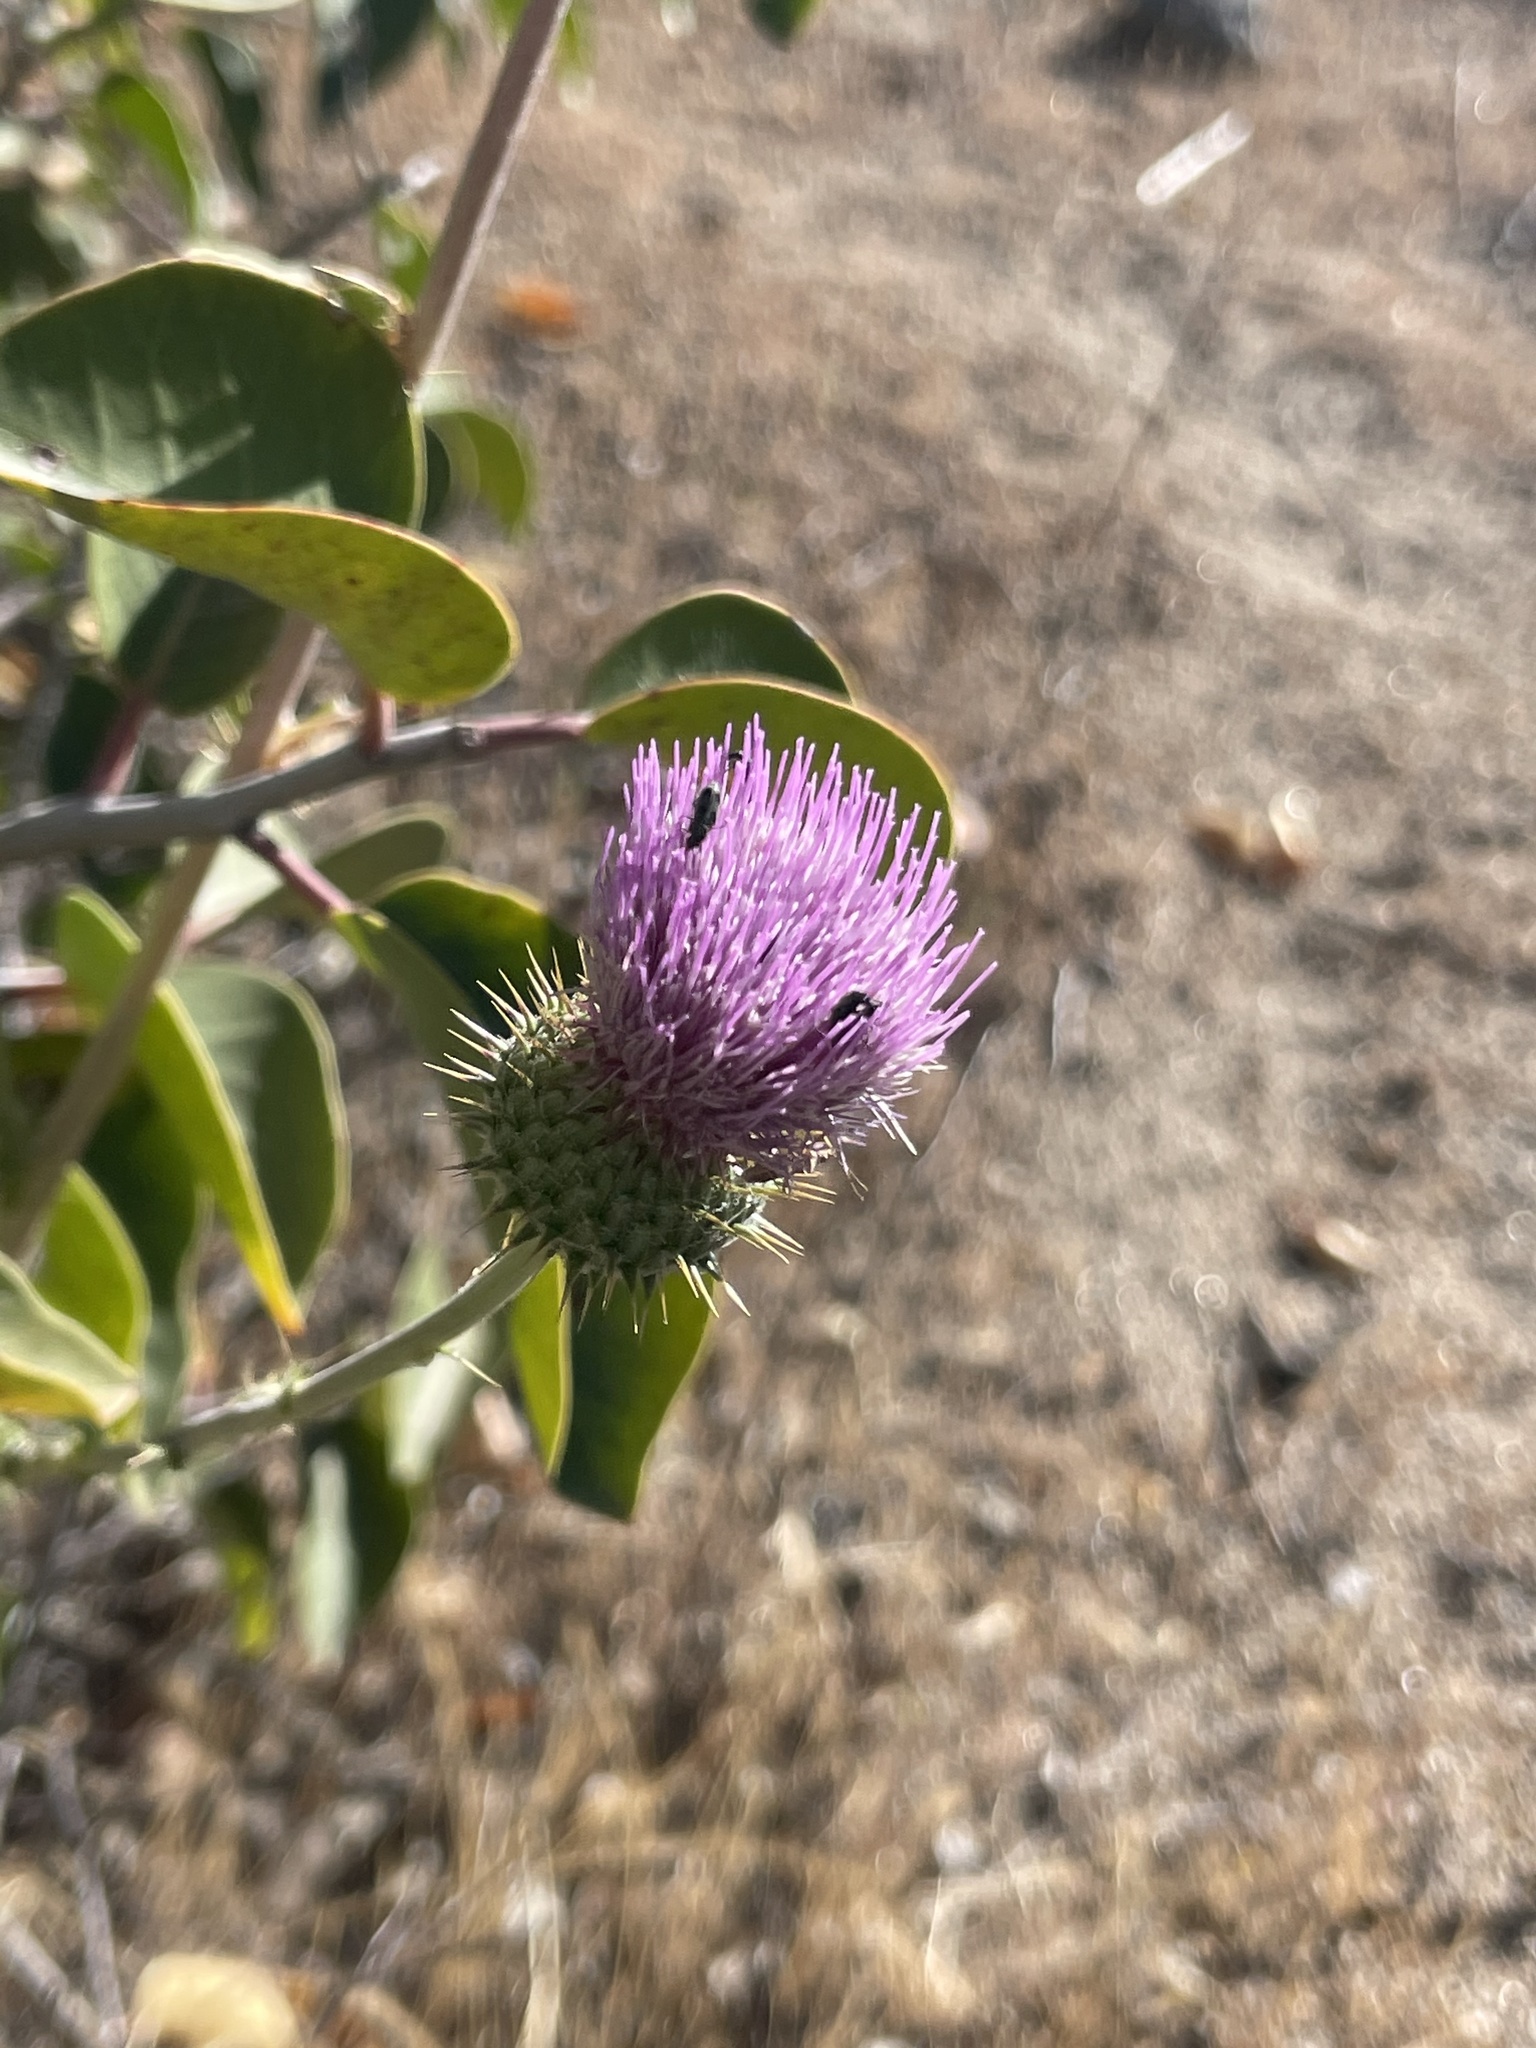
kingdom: Plantae
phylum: Tracheophyta
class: Magnoliopsida
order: Asterales
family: Asteraceae
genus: Cirsium
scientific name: Cirsium occidentale
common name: Western thistle
